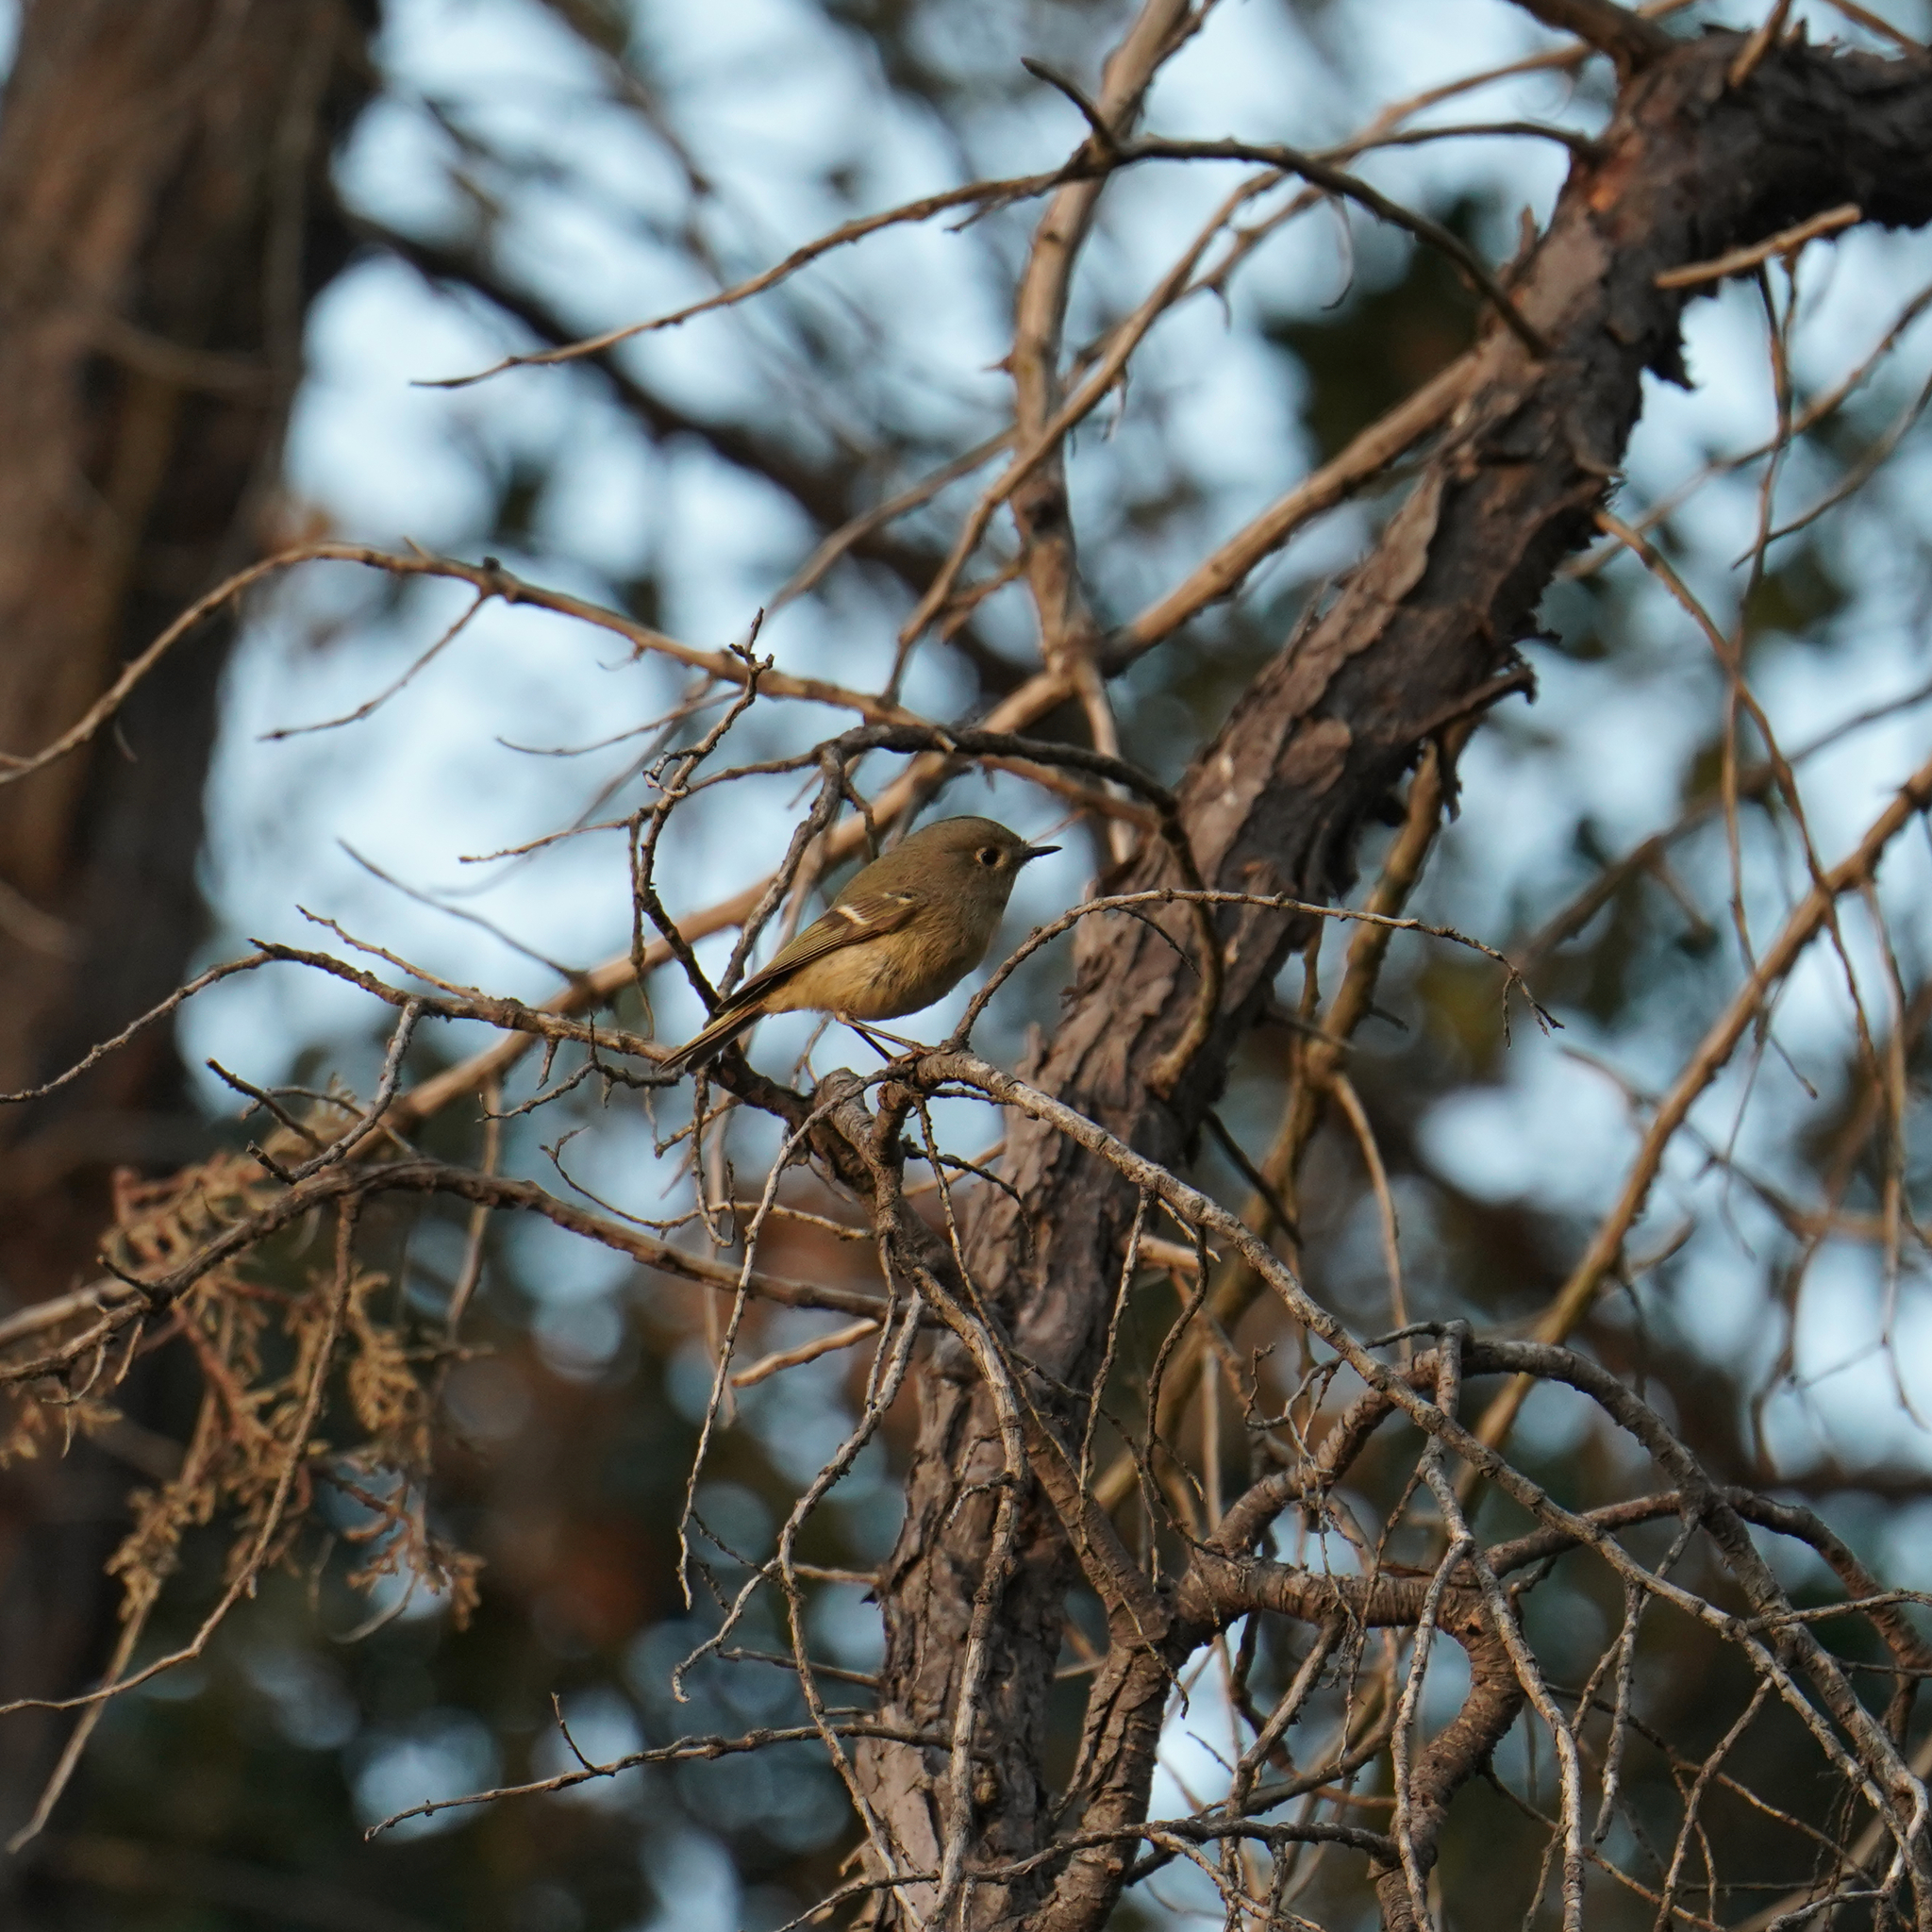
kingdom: Animalia
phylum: Chordata
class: Aves
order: Passeriformes
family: Regulidae
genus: Regulus
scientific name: Regulus calendula
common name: Ruby-crowned kinglet
